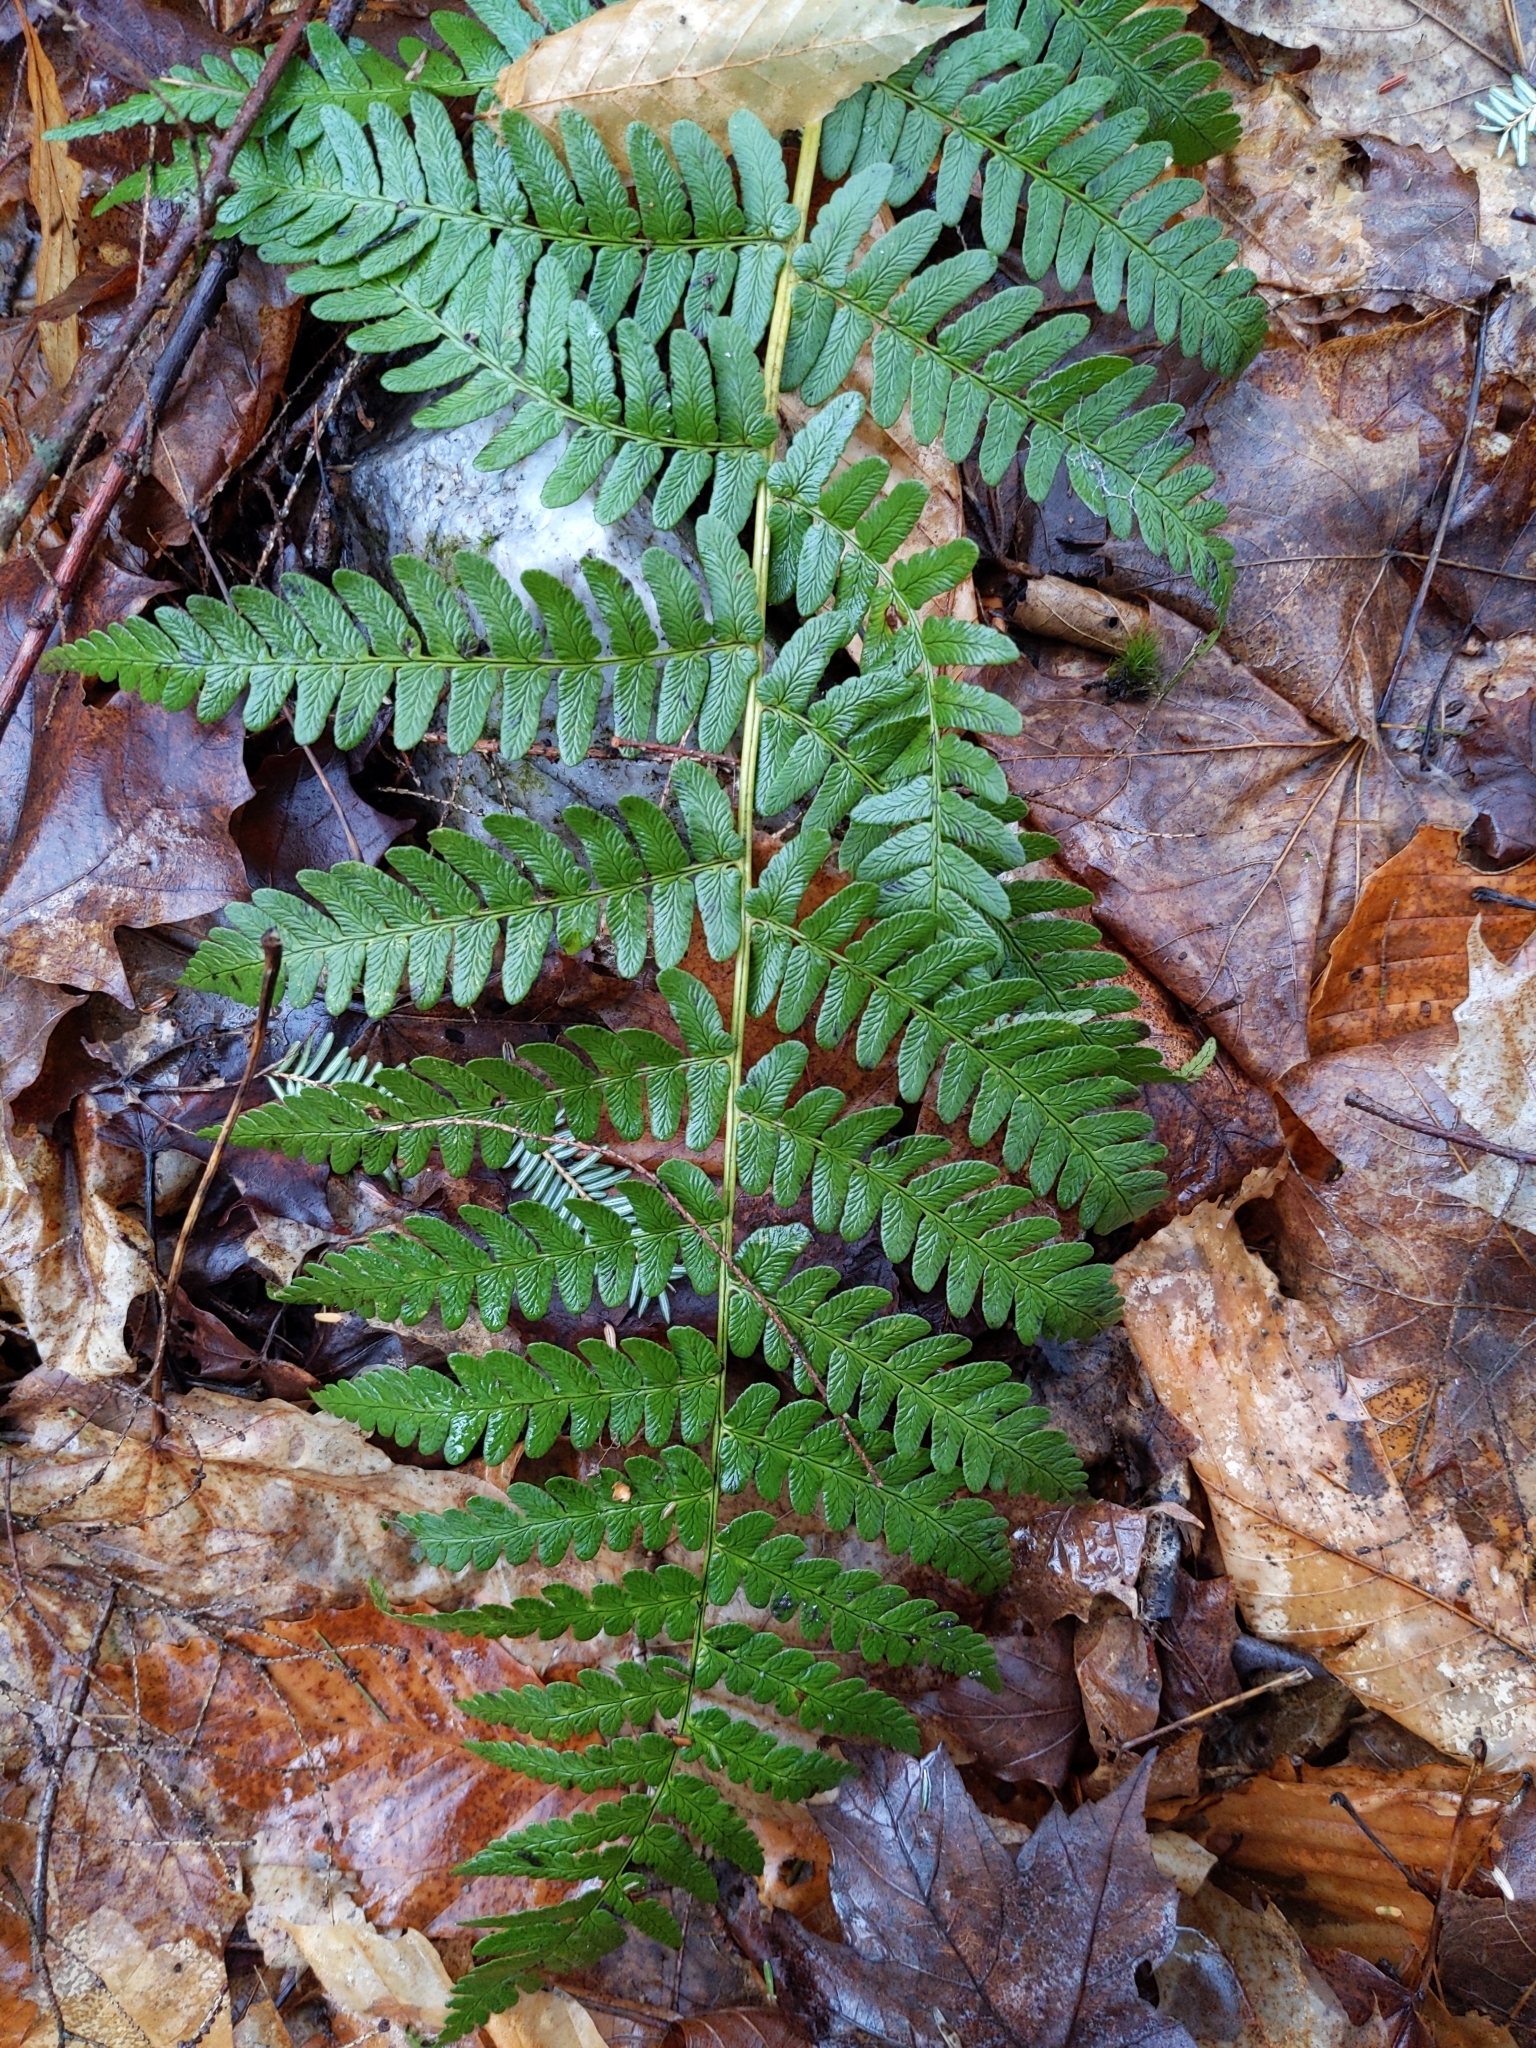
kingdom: Plantae
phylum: Tracheophyta
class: Polypodiopsida
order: Polypodiales
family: Dryopteridaceae
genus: Dryopteris
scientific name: Dryopteris marginalis
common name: Marginal wood fern
